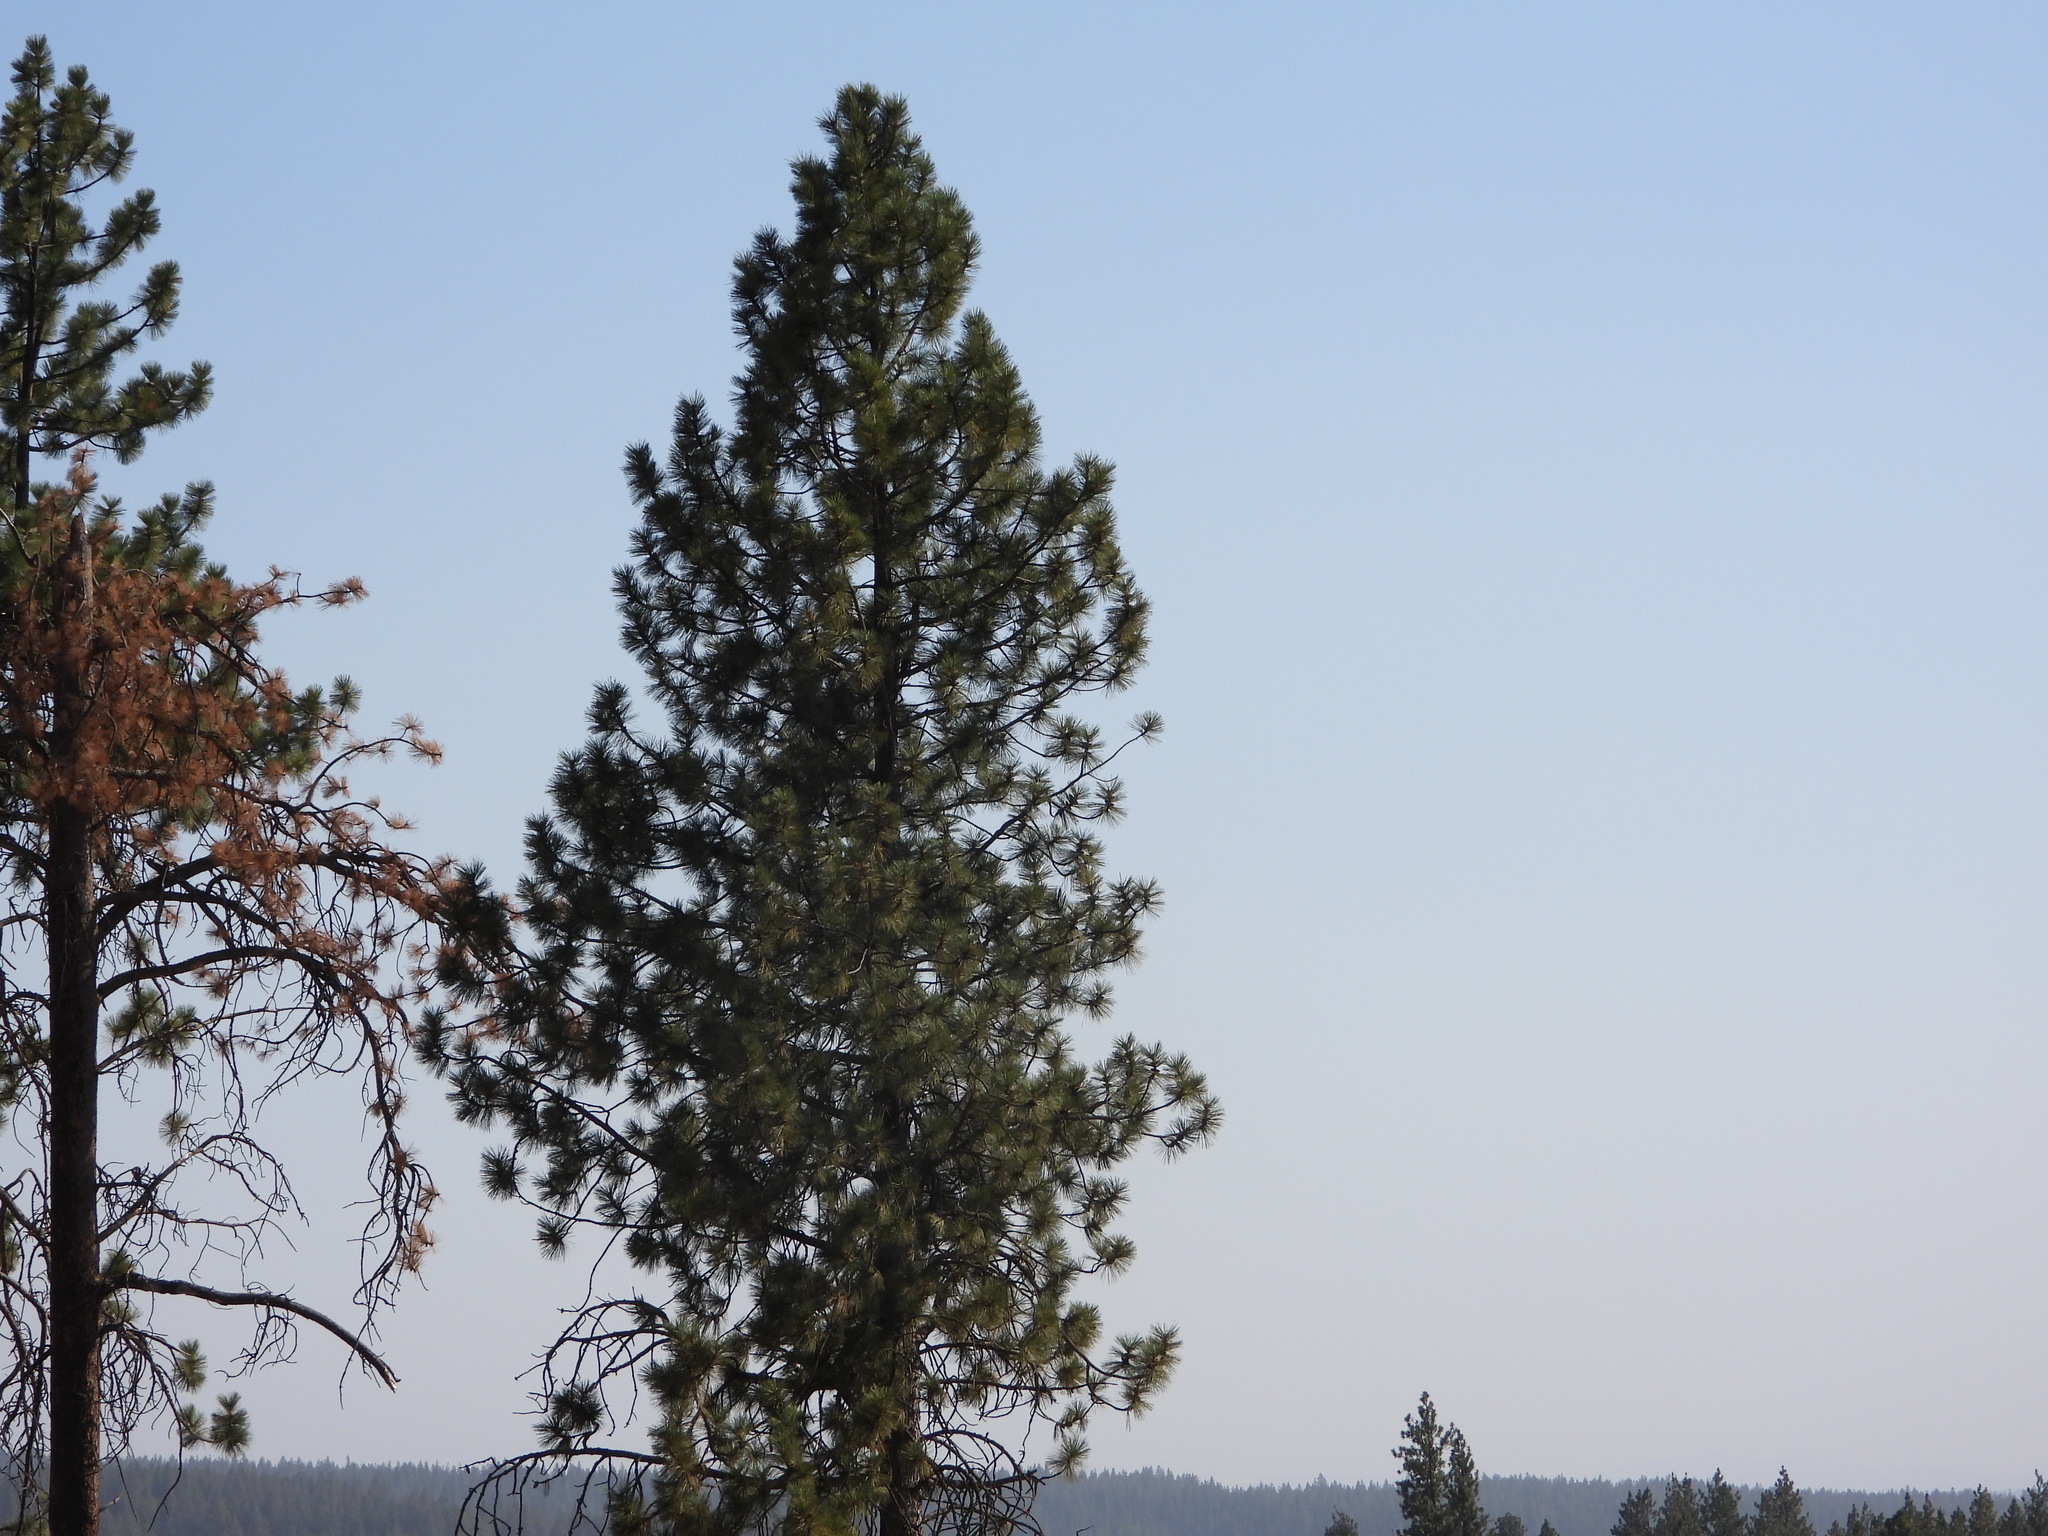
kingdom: Plantae
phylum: Tracheophyta
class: Pinopsida
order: Pinales
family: Pinaceae
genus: Pinus
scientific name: Pinus ponderosa
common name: Western yellow-pine
